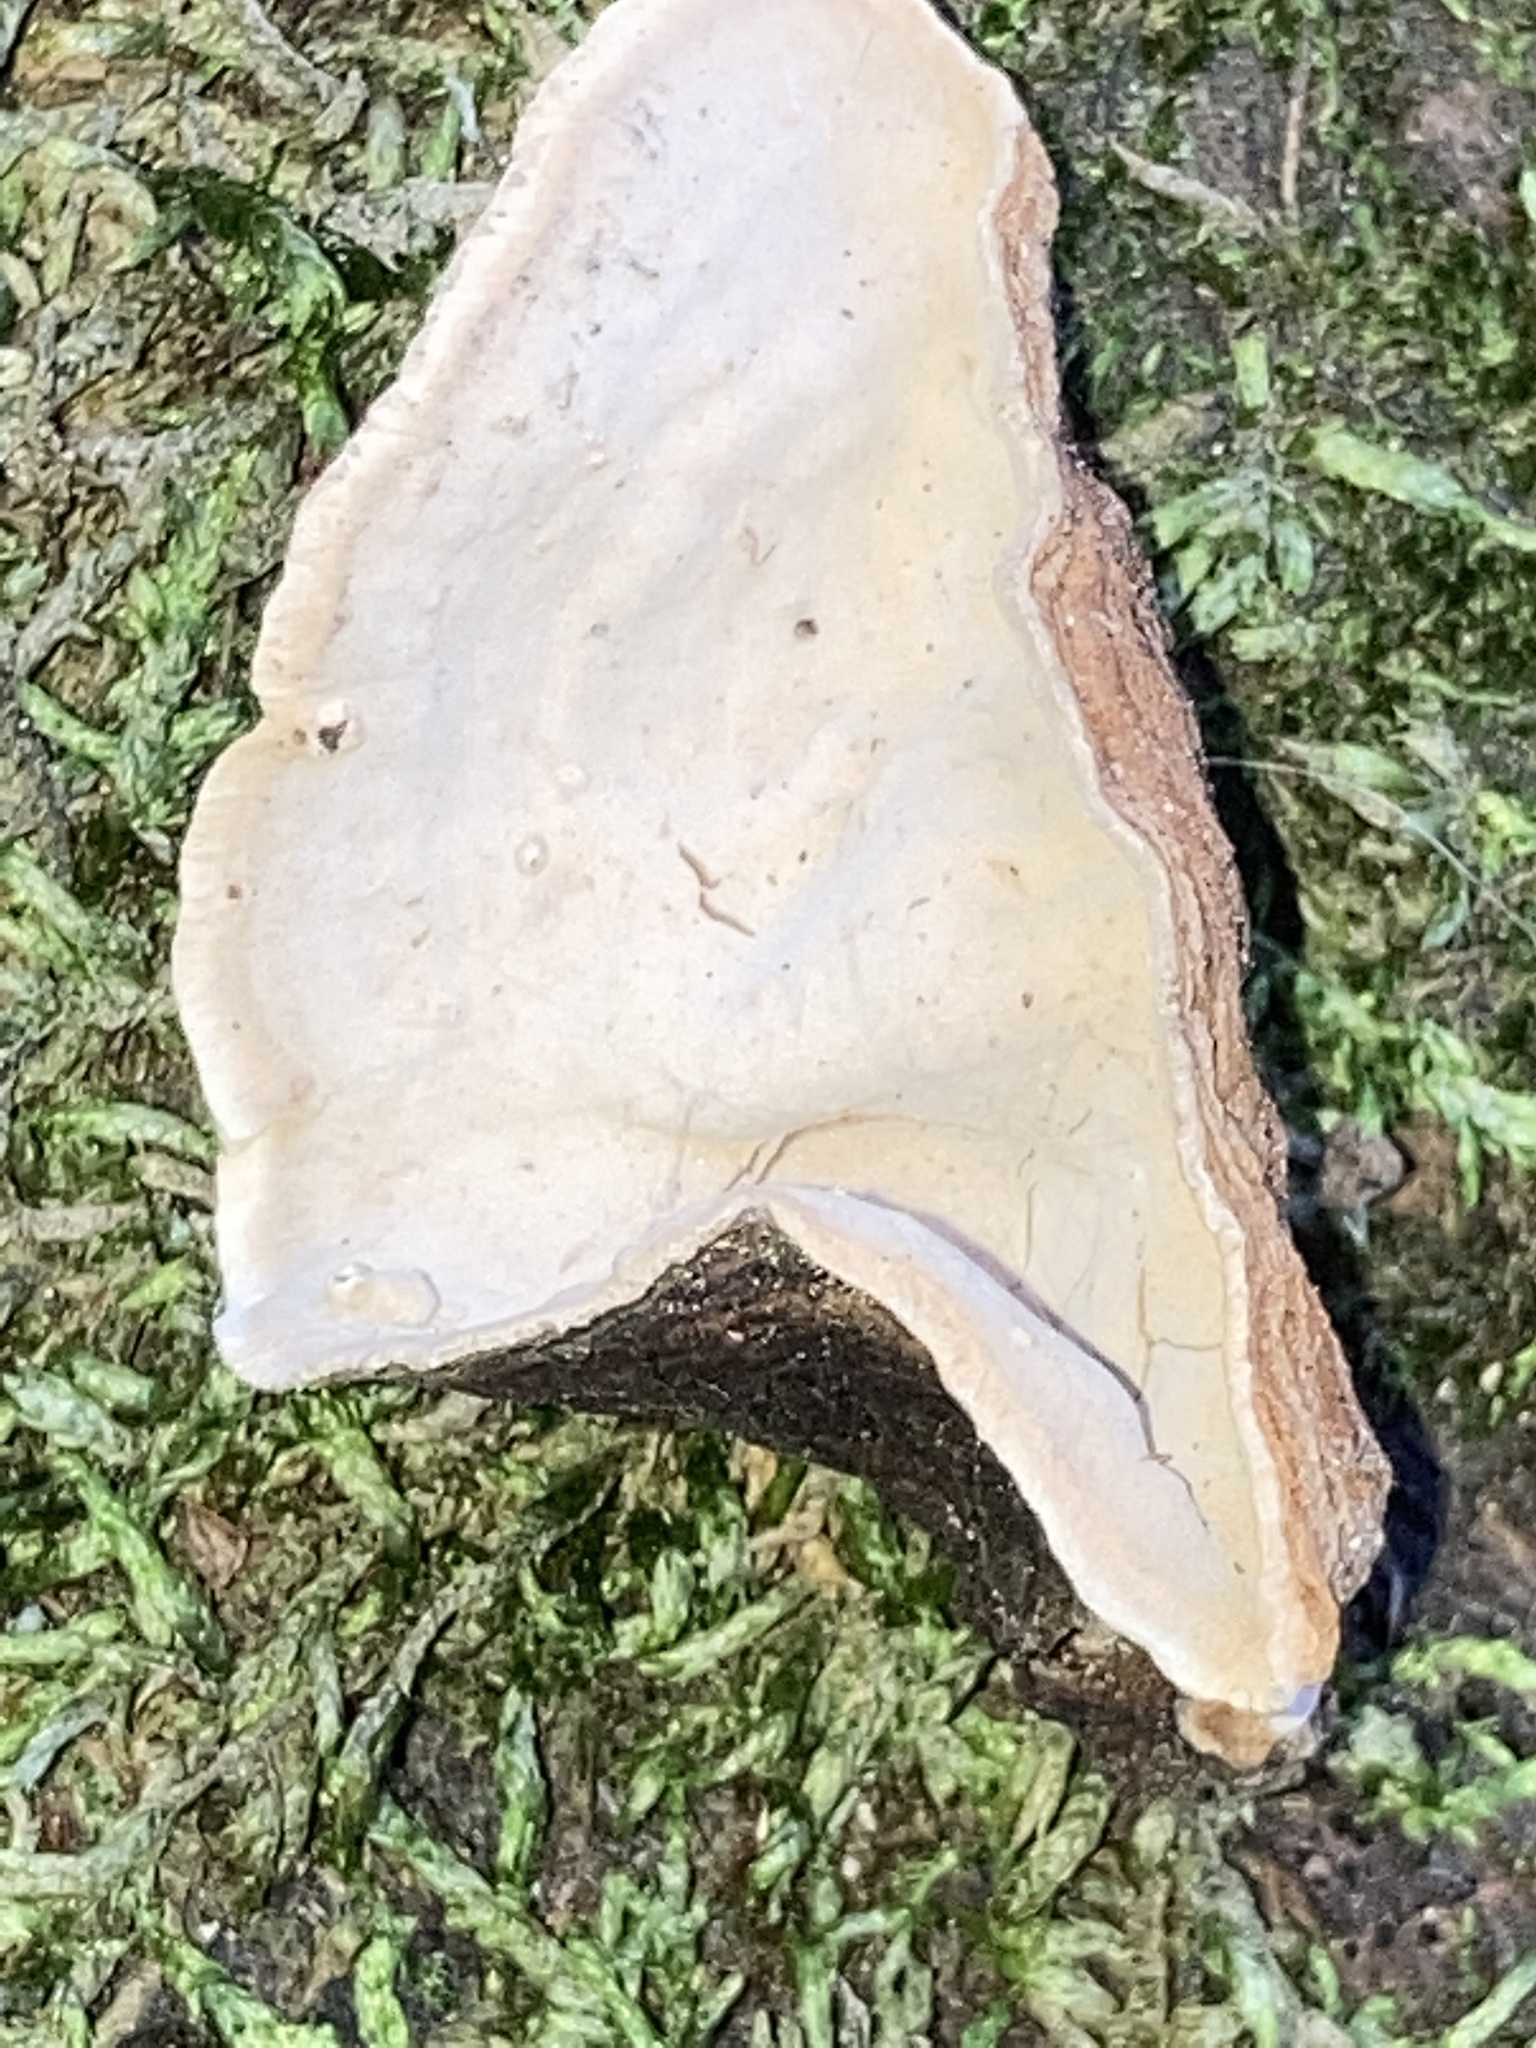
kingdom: Fungi
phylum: Basidiomycota
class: Agaricomycetes
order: Russulales
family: Stereaceae
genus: Xylobolus
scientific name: Xylobolus subpileatus
